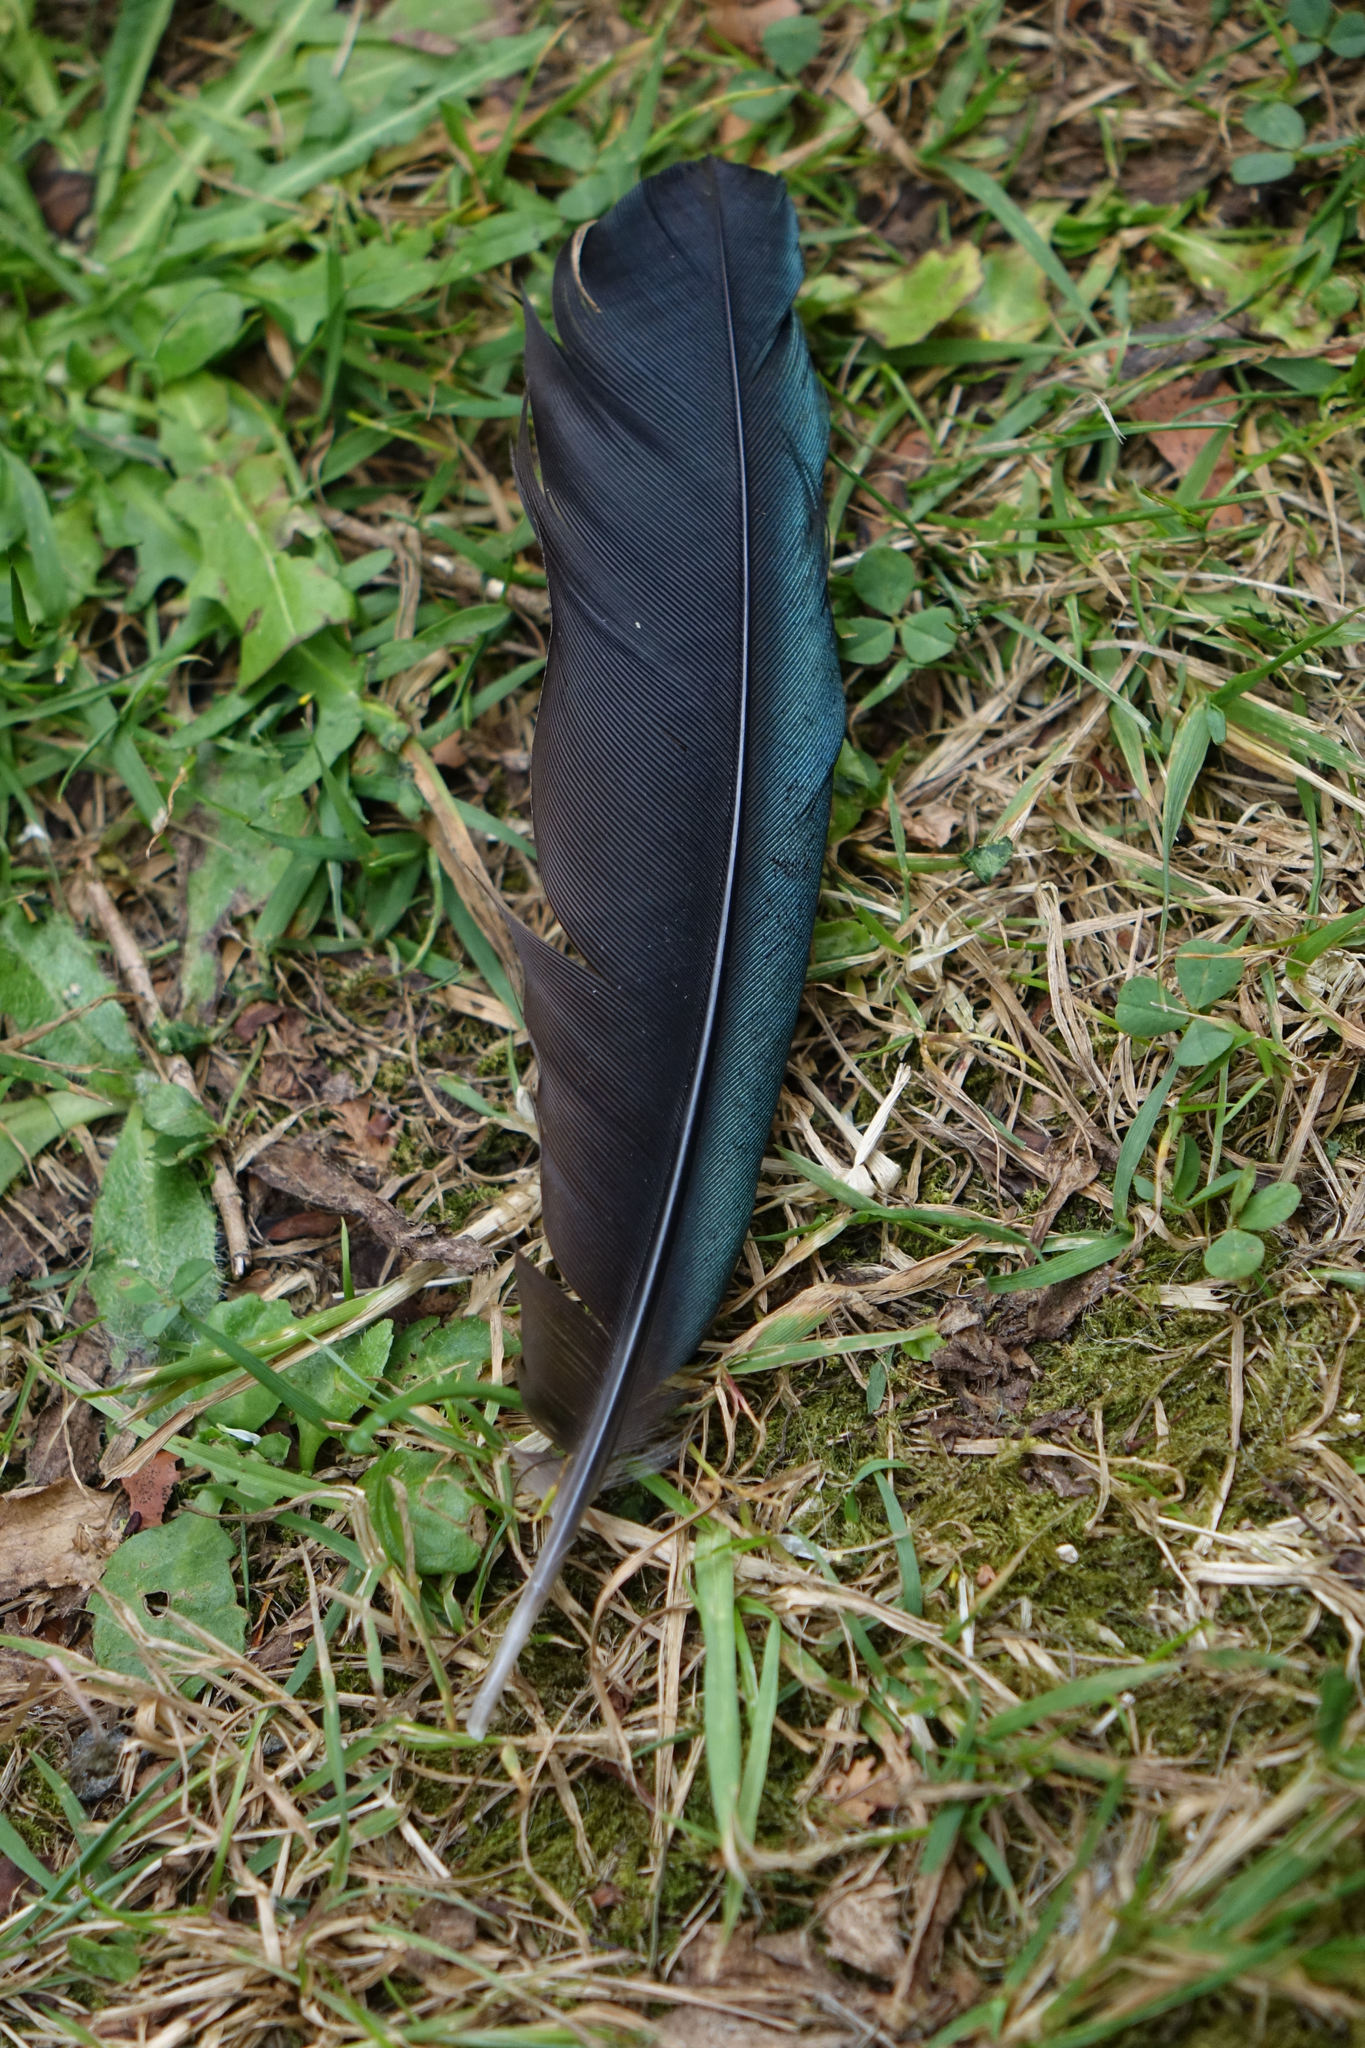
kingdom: Animalia
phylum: Chordata
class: Aves
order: Passeriformes
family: Meliphagidae
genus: Prosthemadera
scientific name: Prosthemadera novaeseelandiae
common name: Tui
